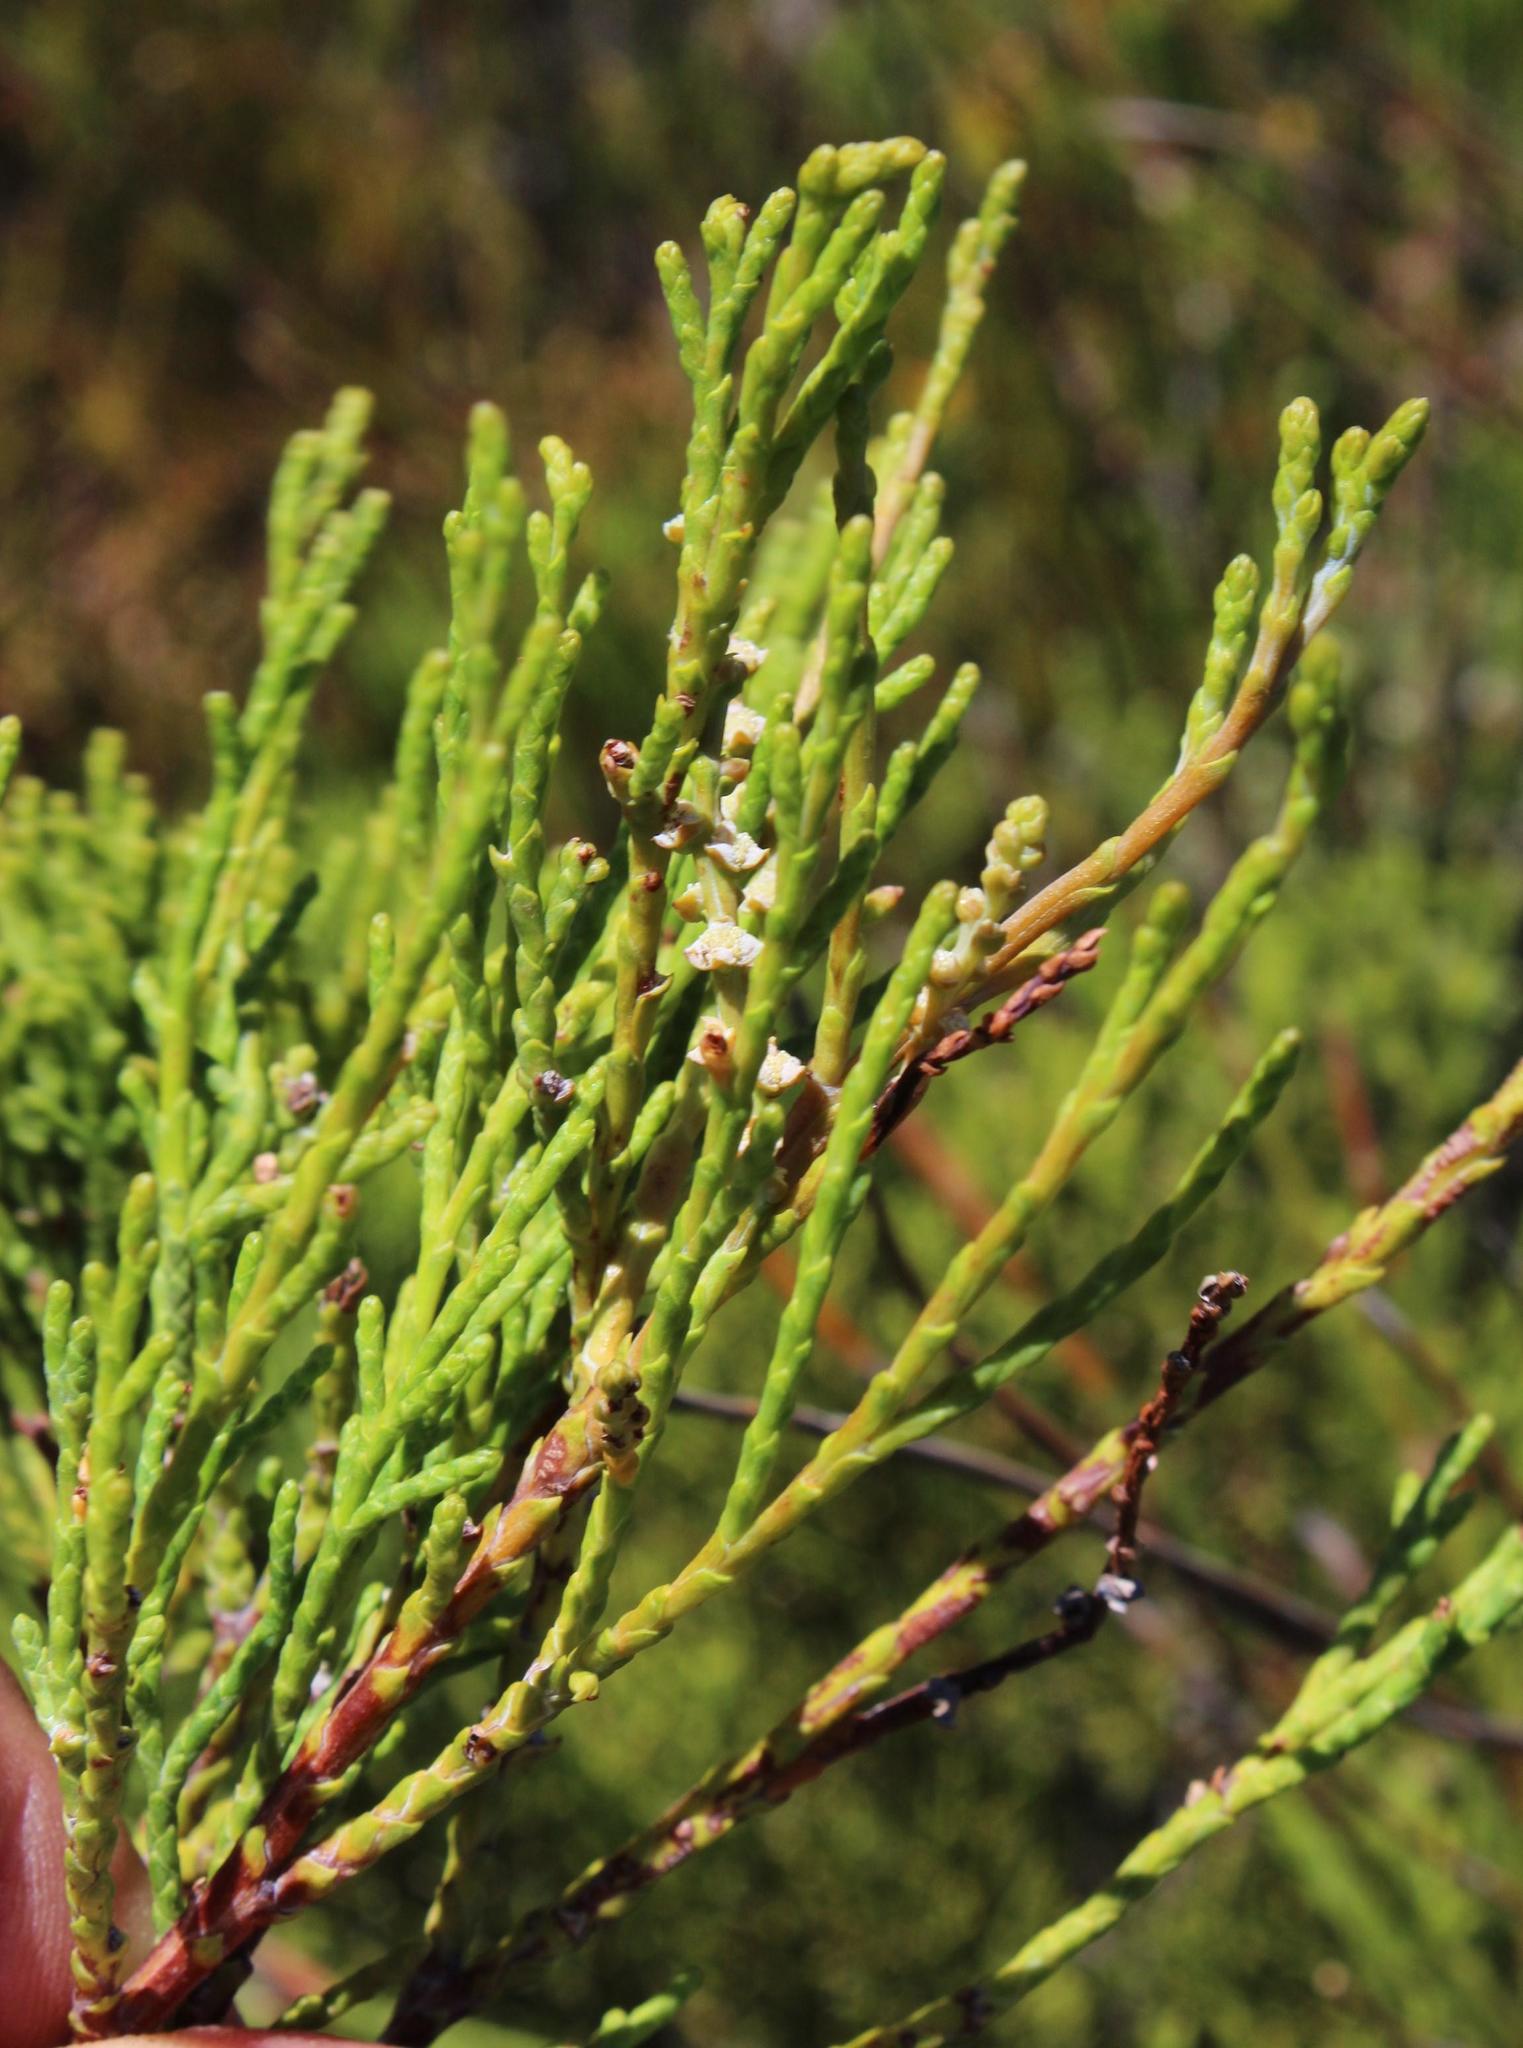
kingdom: Plantae
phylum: Tracheophyta
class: Pinopsida
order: Pinales
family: Cupressaceae
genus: Widdringtonia
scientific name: Widdringtonia nodiflora
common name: Cape cypress
